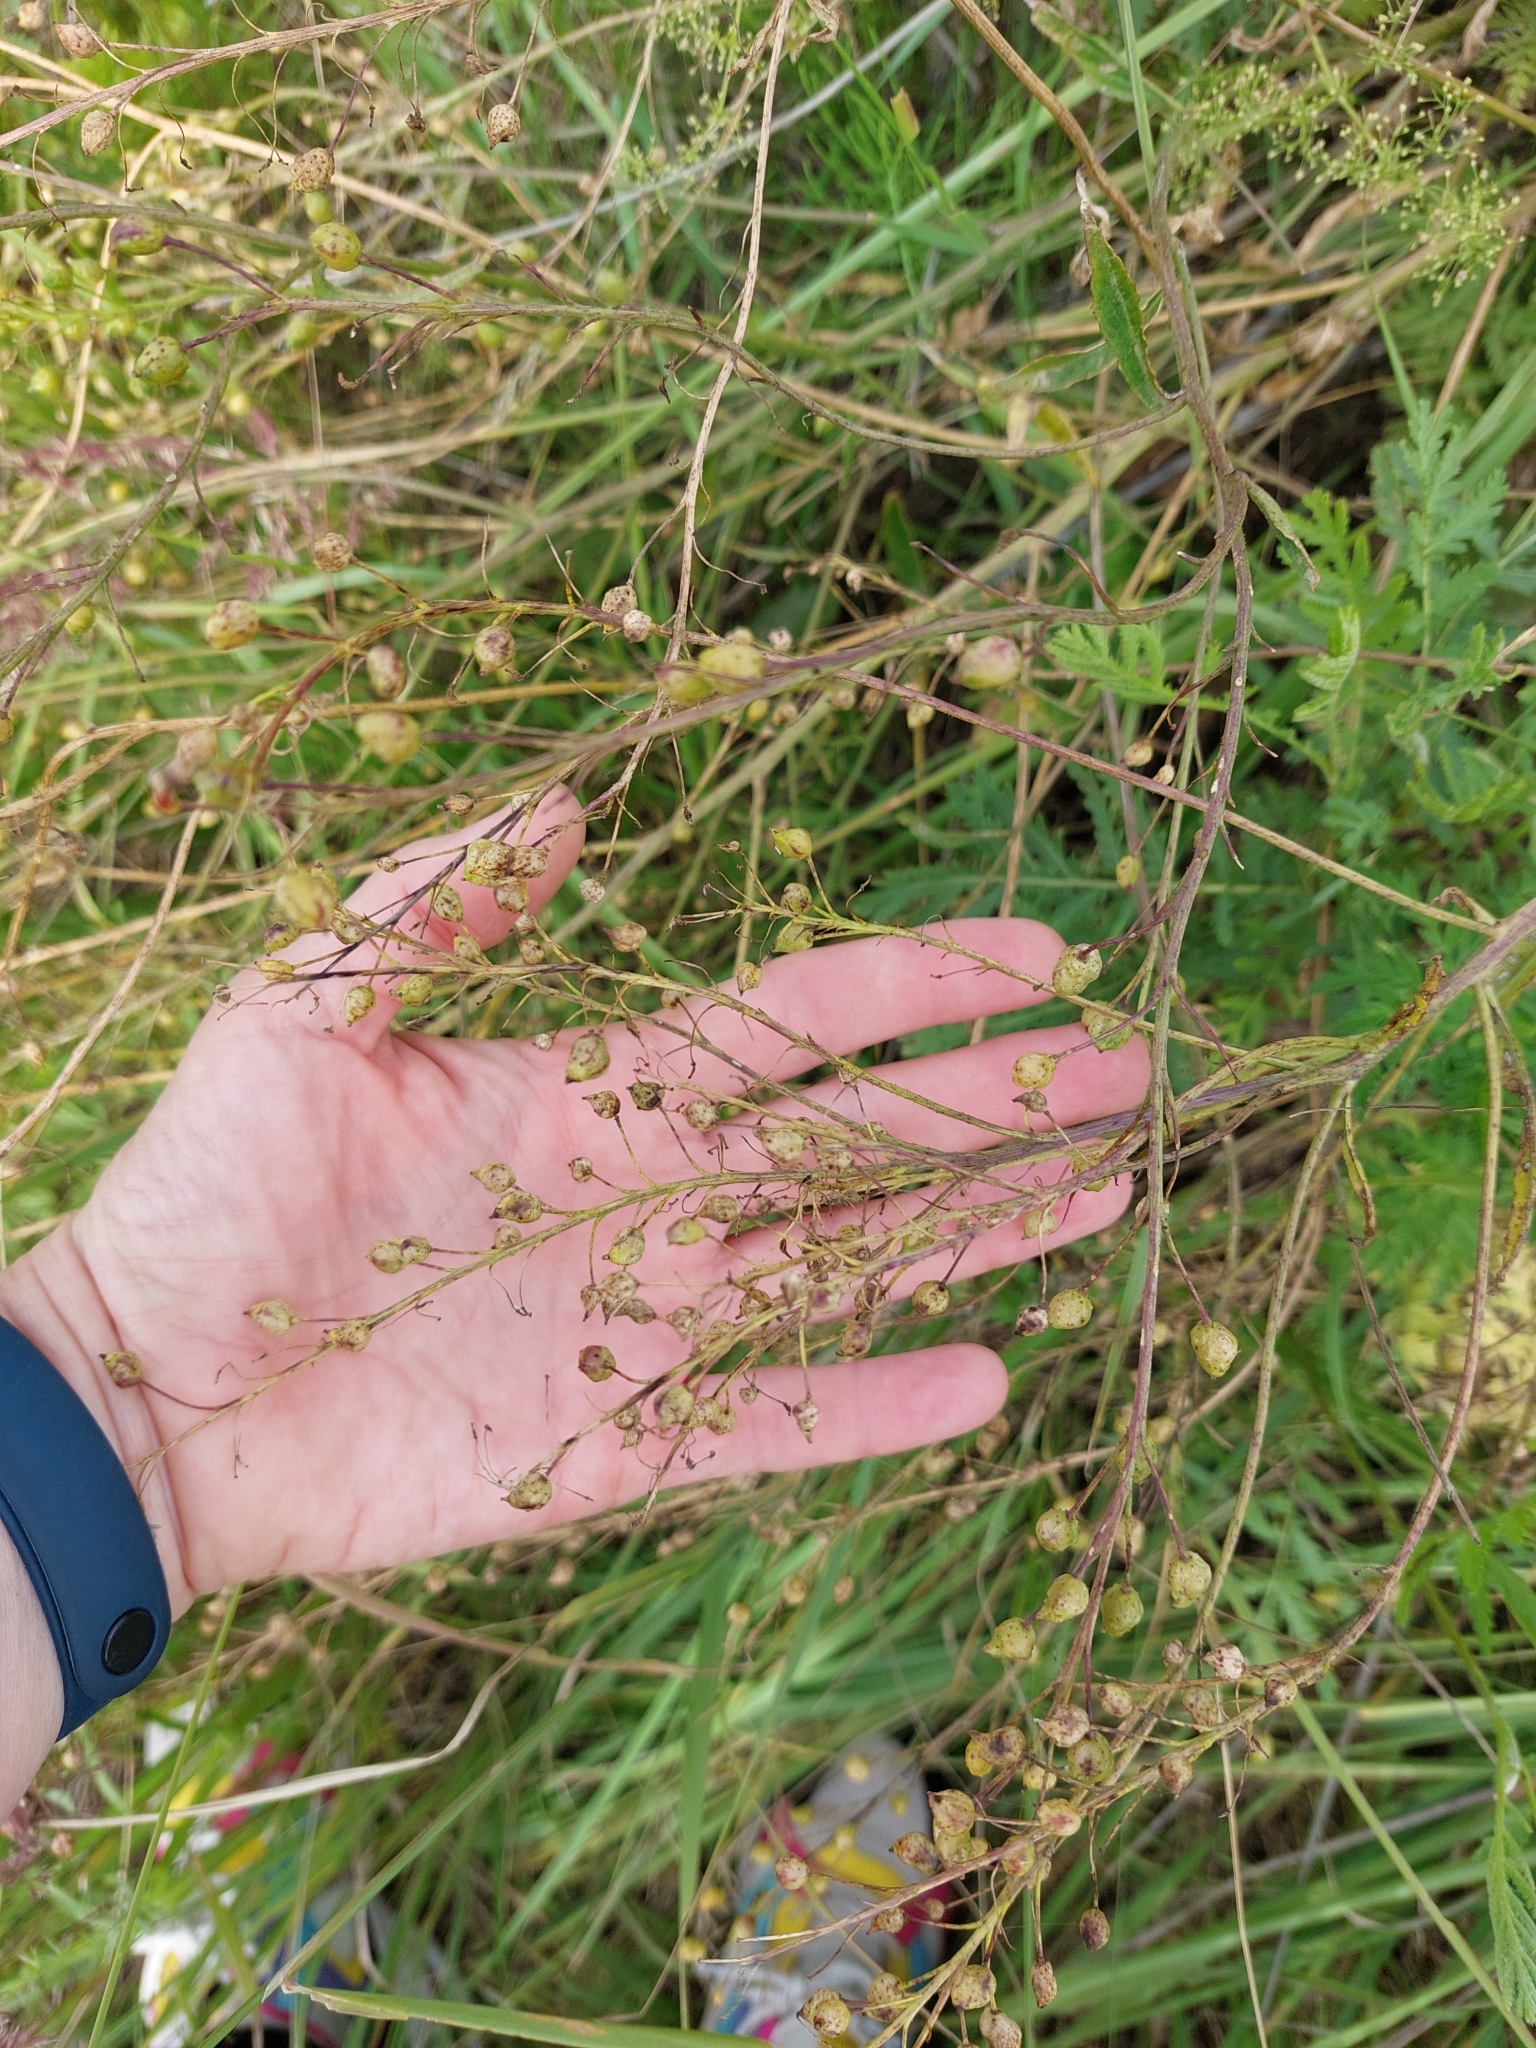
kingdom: Plantae
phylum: Tracheophyta
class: Magnoliopsida
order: Brassicales
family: Brassicaceae
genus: Bunias
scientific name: Bunias orientalis
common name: Warty-cabbage
